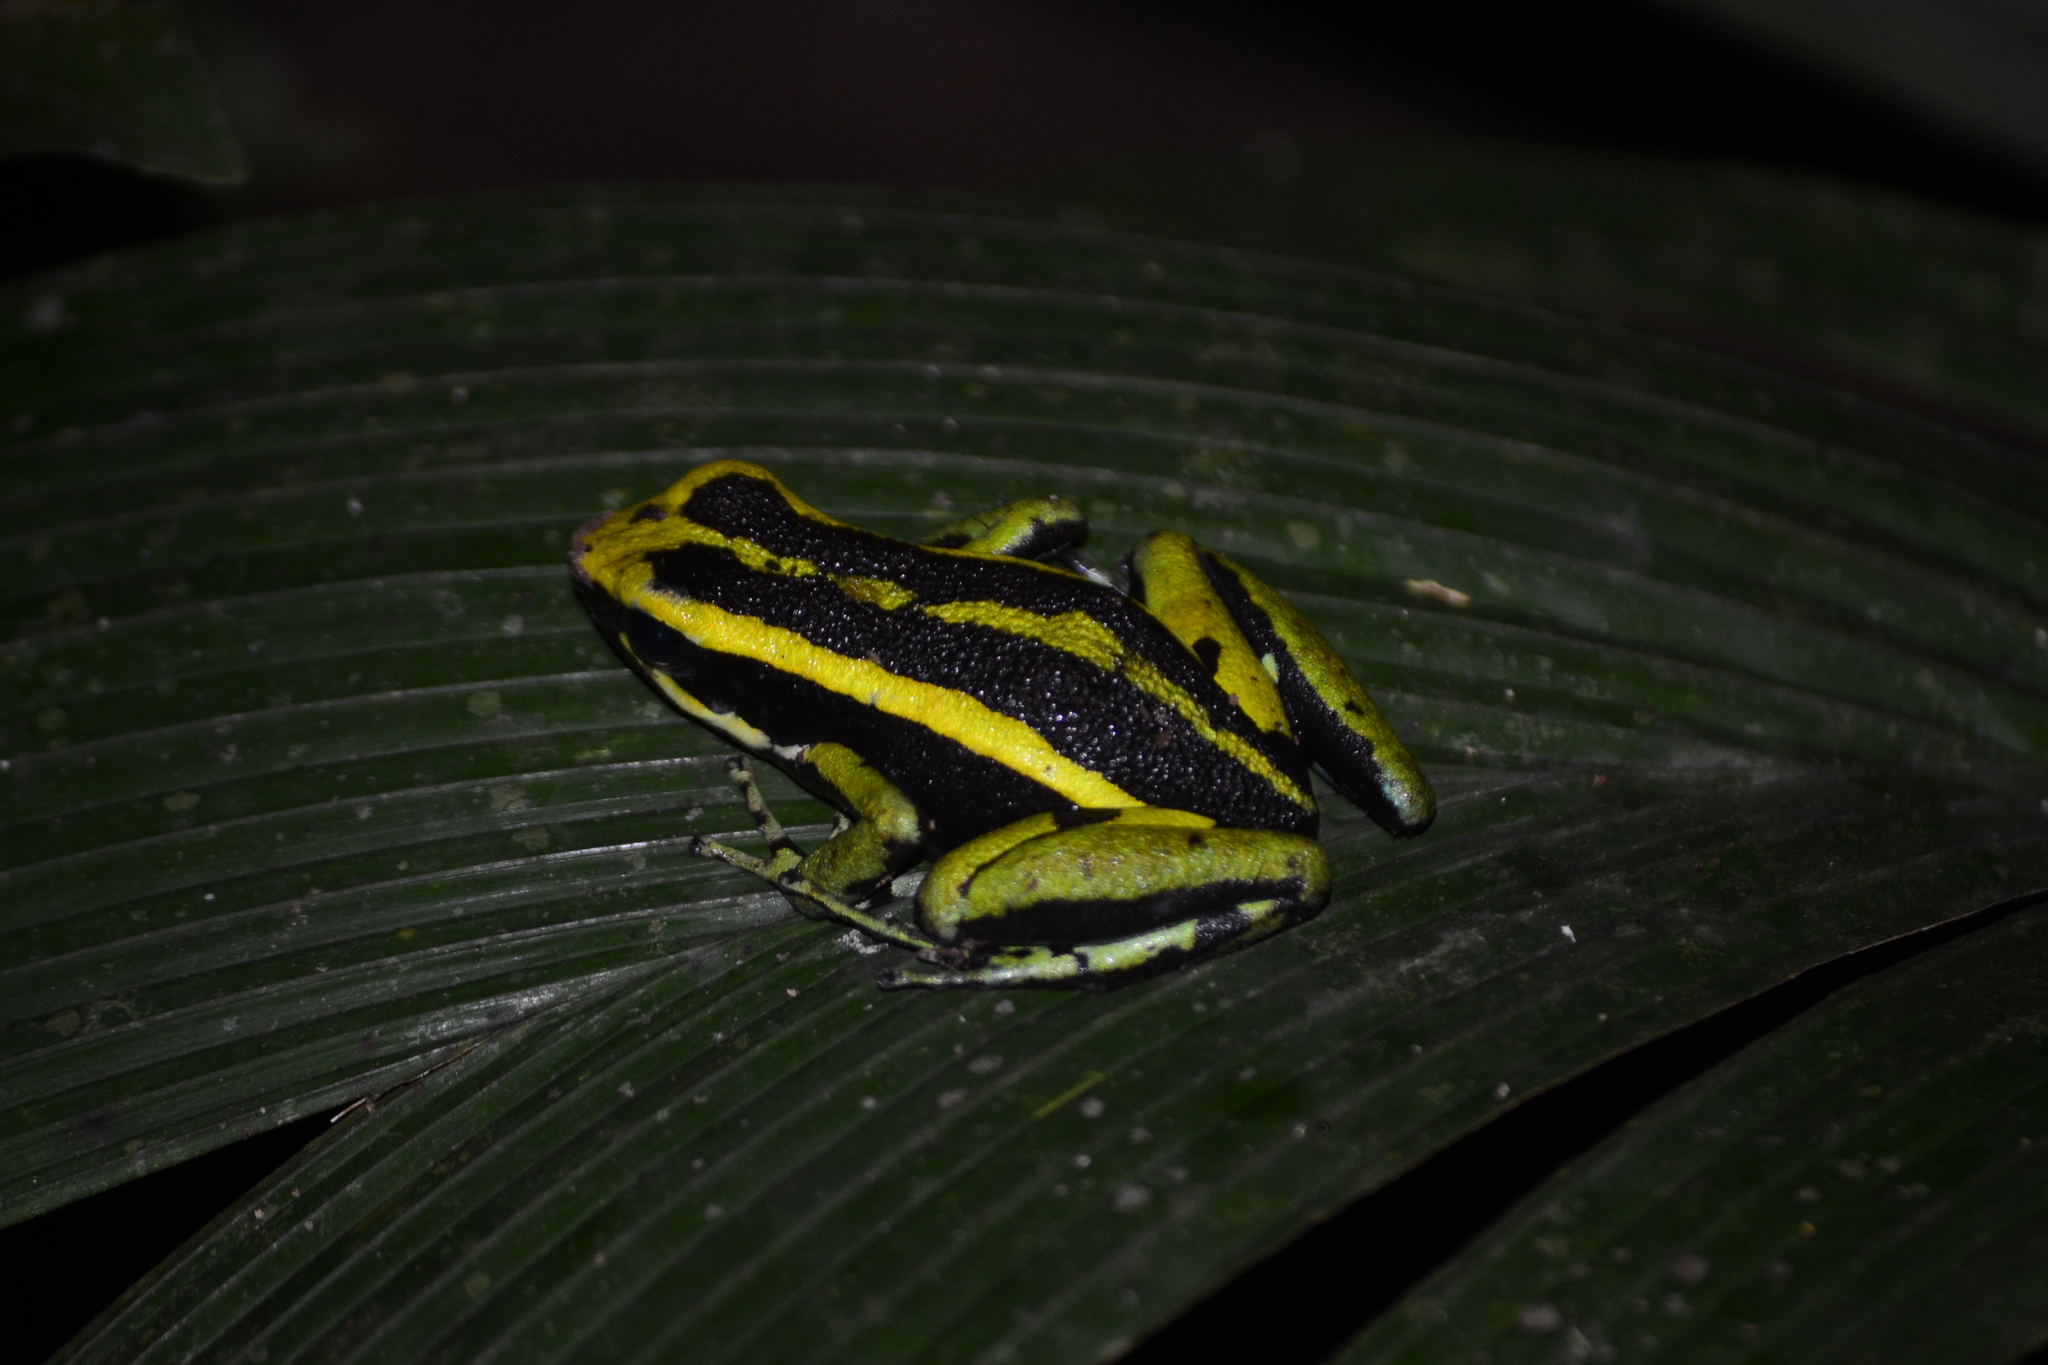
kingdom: Animalia
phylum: Chordata
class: Amphibia
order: Anura
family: Dendrobatidae
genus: Ameerega
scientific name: Ameerega trivittata
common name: Three-striped arrow-poison frog
